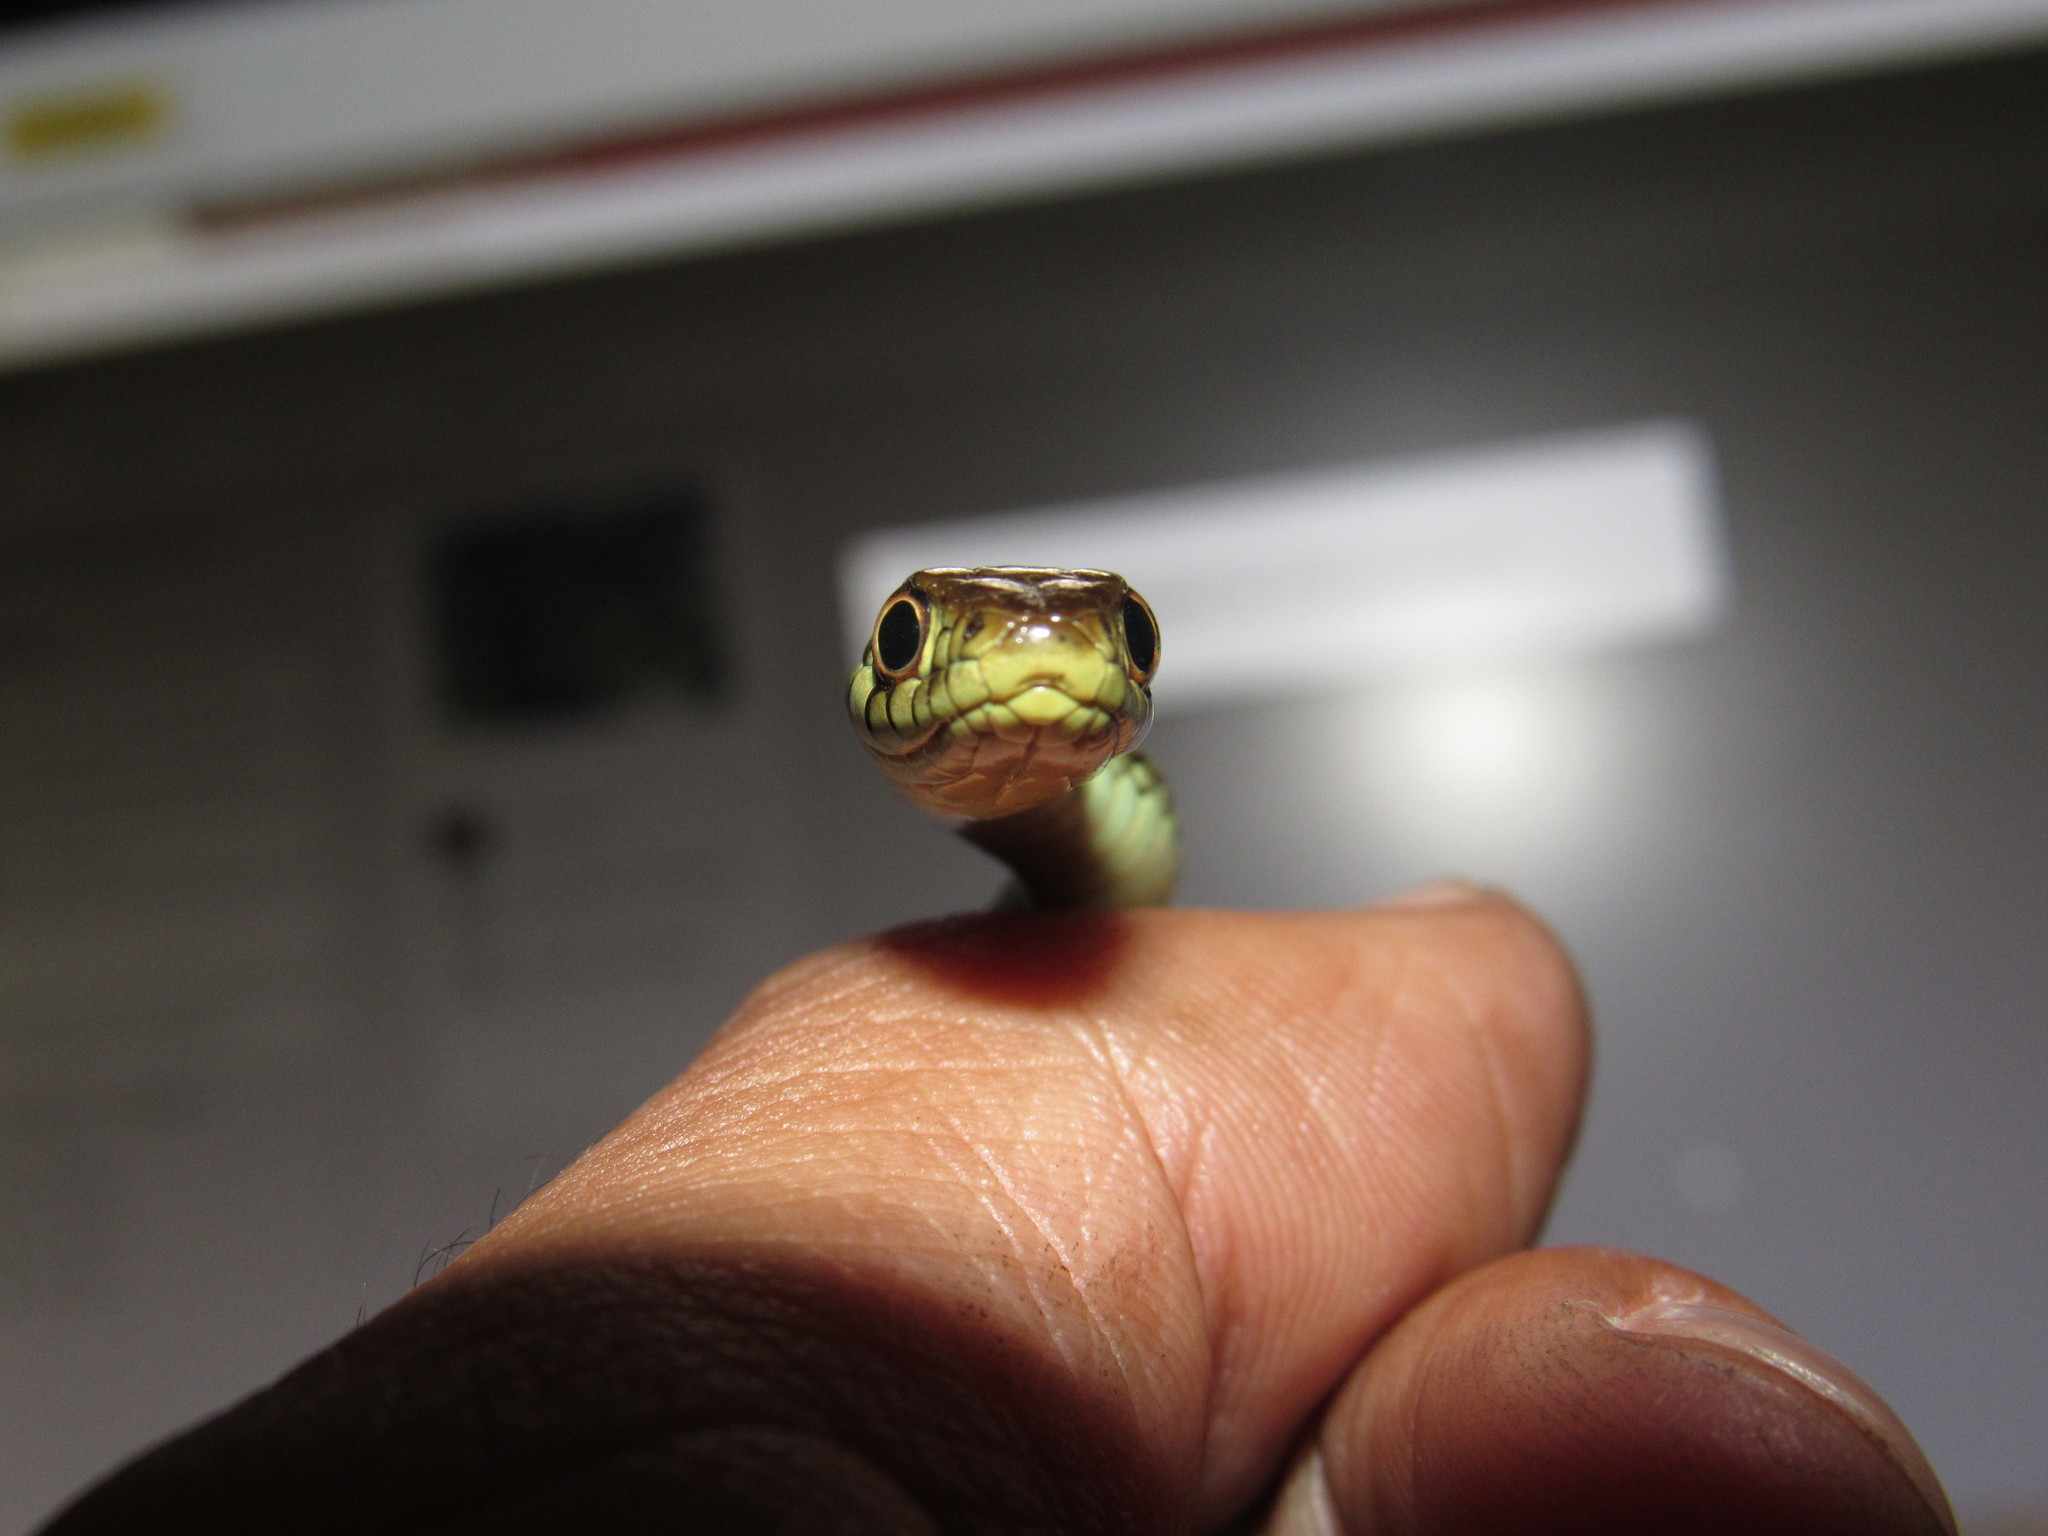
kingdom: Animalia
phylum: Chordata
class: Squamata
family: Colubridae
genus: Thamnophis
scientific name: Thamnophis eques
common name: Mexican garter snake
